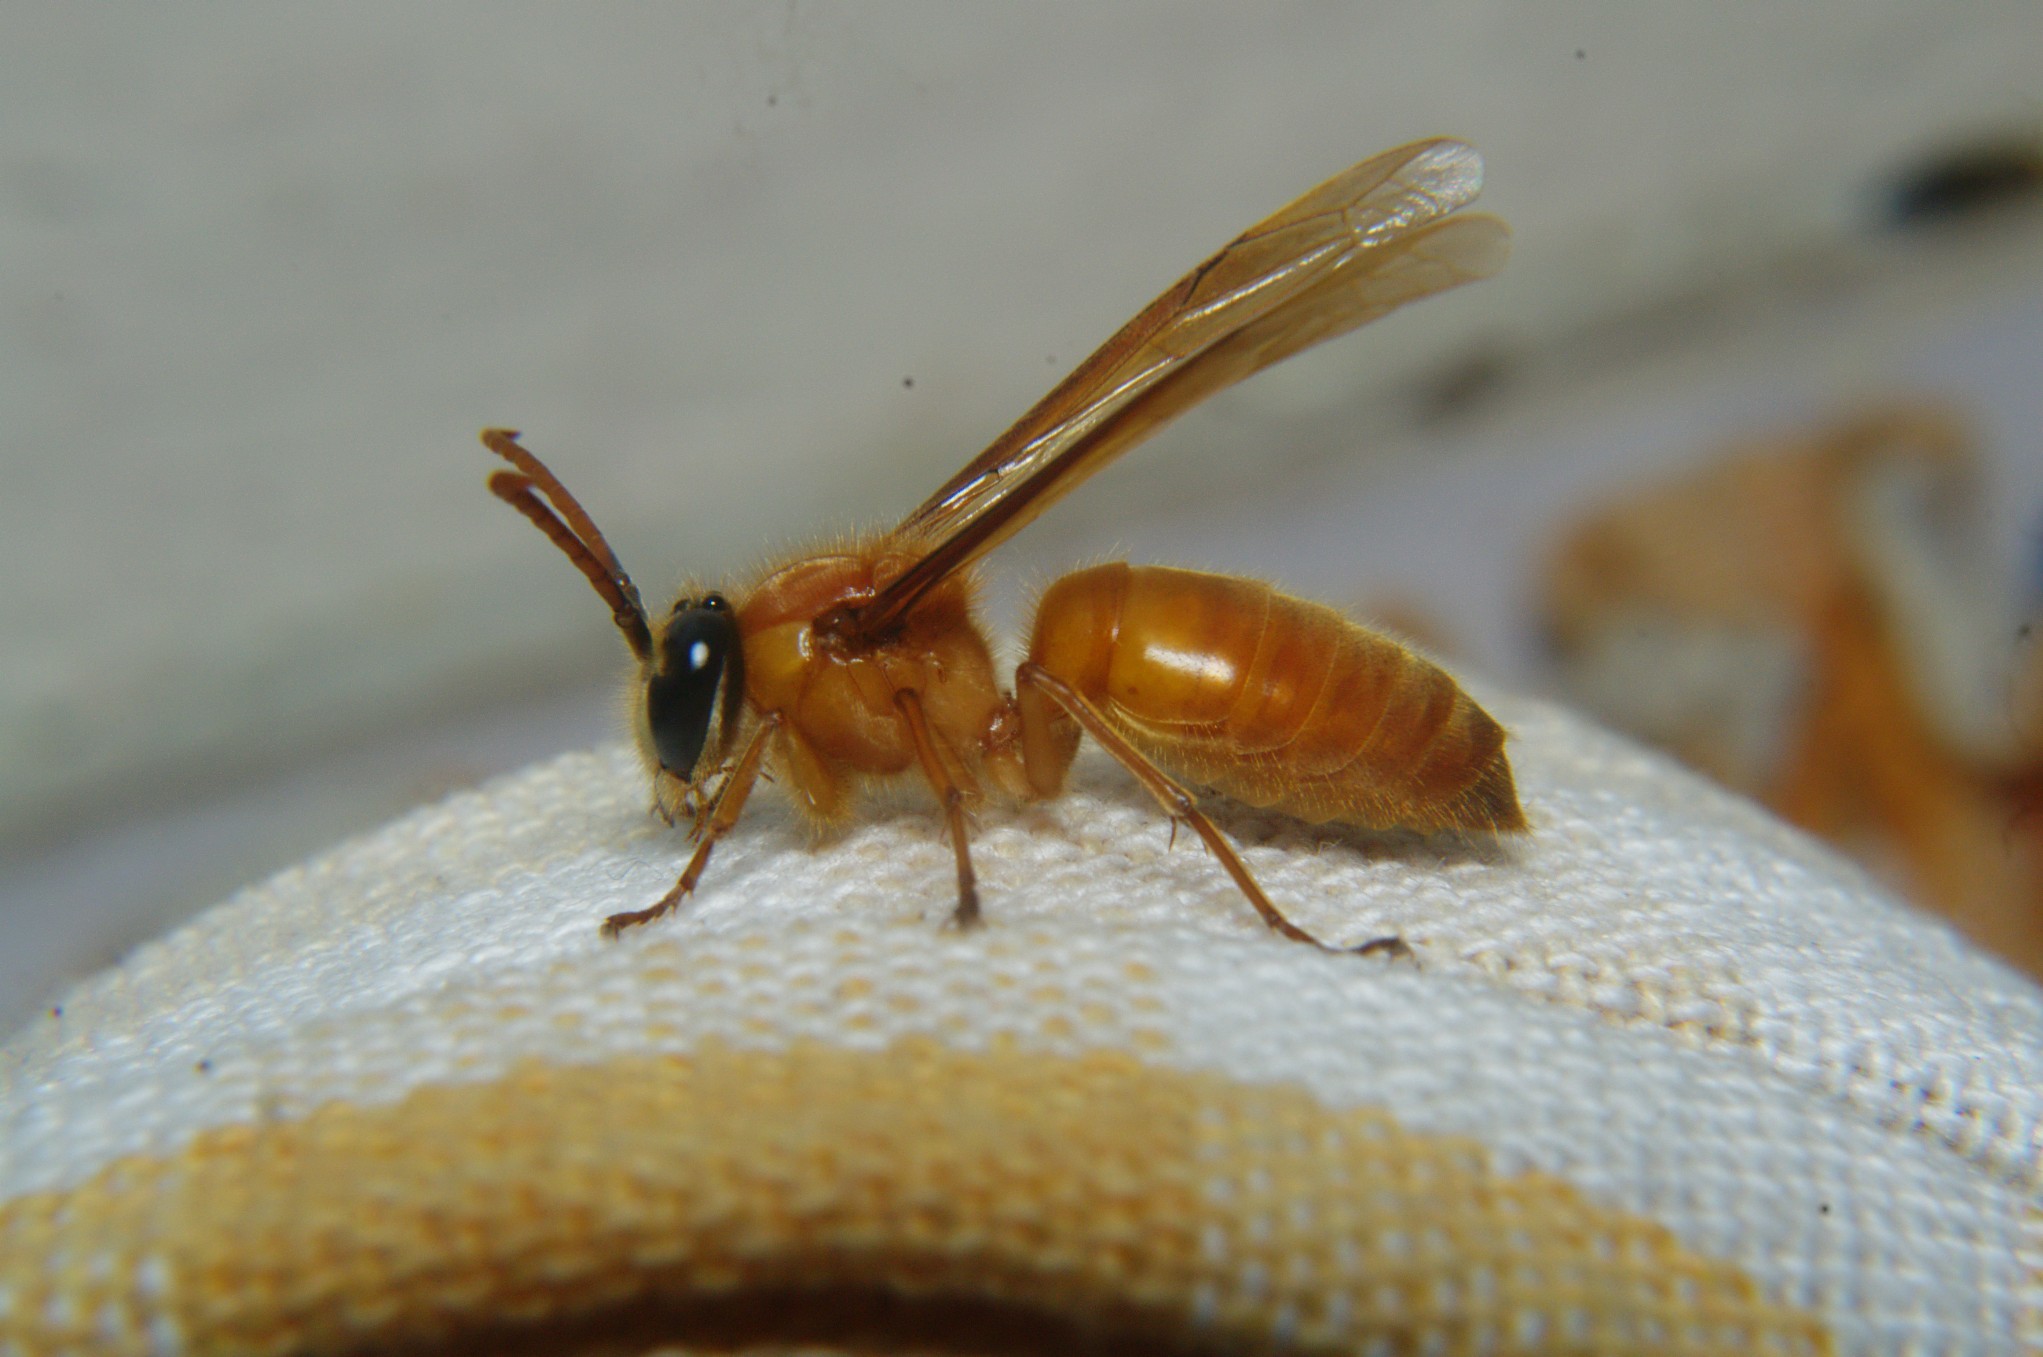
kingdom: Animalia
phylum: Arthropoda
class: Insecta
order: Hymenoptera
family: Vespidae
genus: Provespa
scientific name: Provespa barthelemyi
